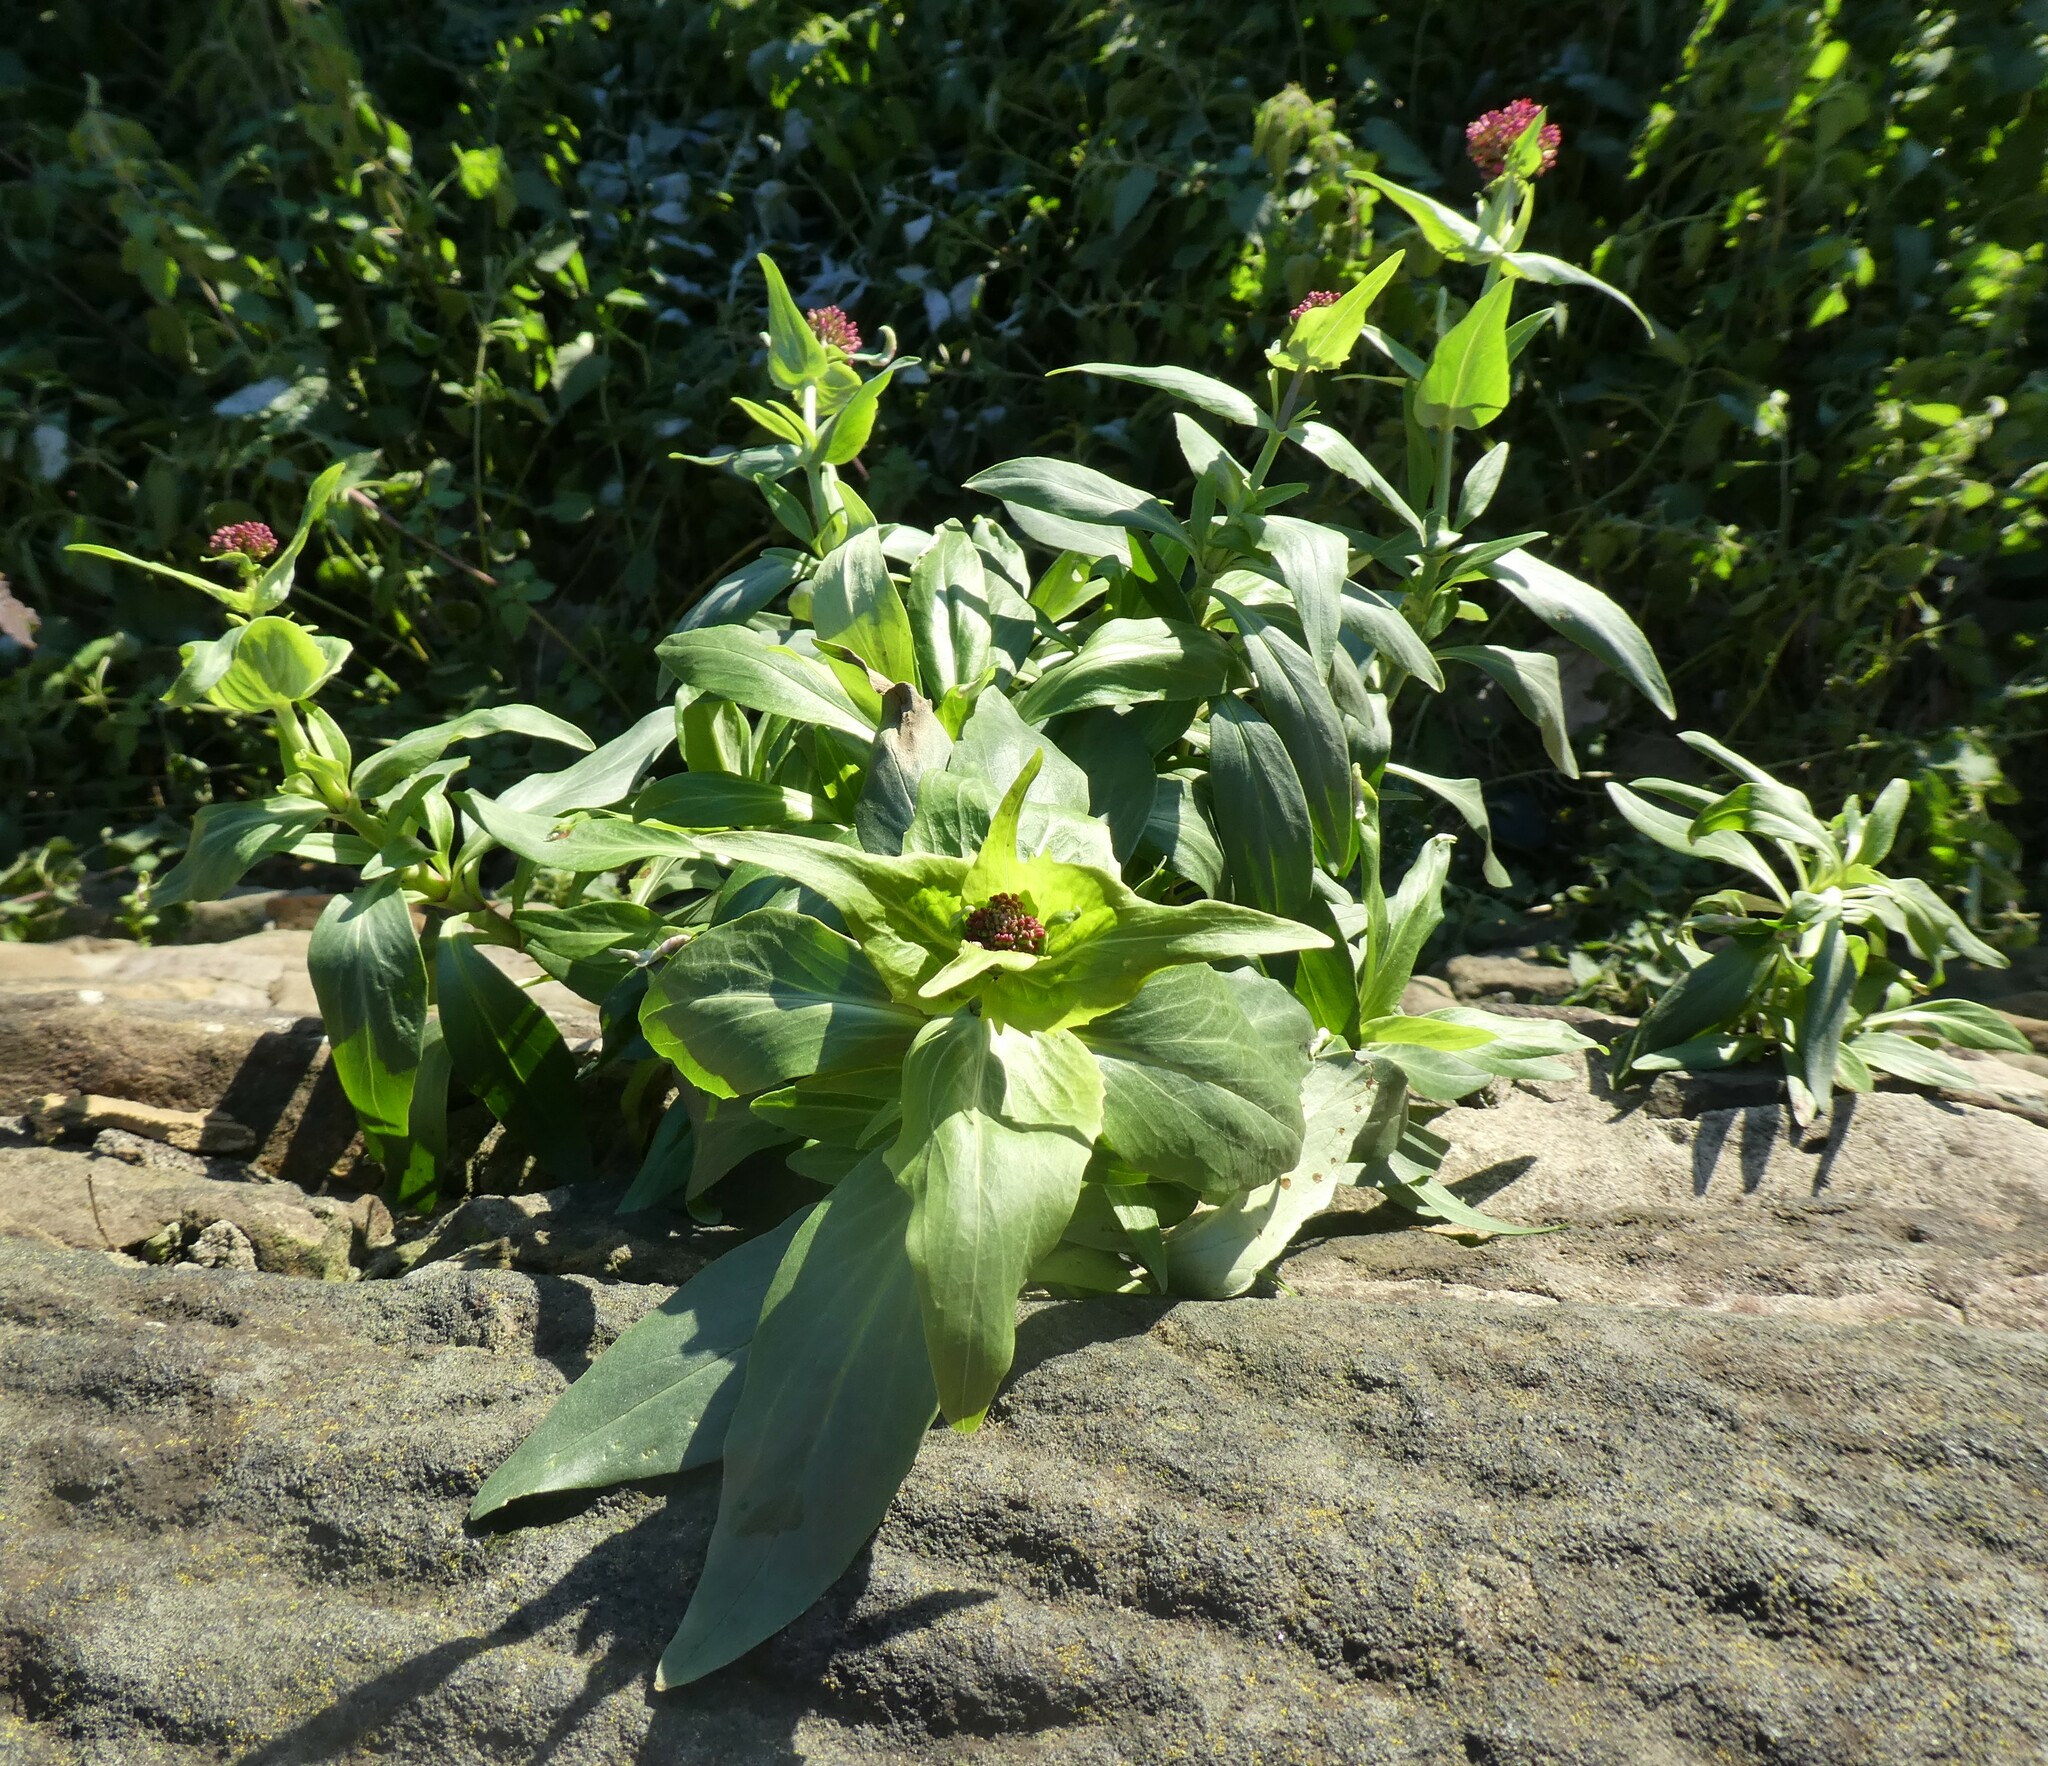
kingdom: Plantae
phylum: Tracheophyta
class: Magnoliopsida
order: Dipsacales
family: Caprifoliaceae
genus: Centranthus
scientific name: Centranthus ruber
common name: Red valerian
